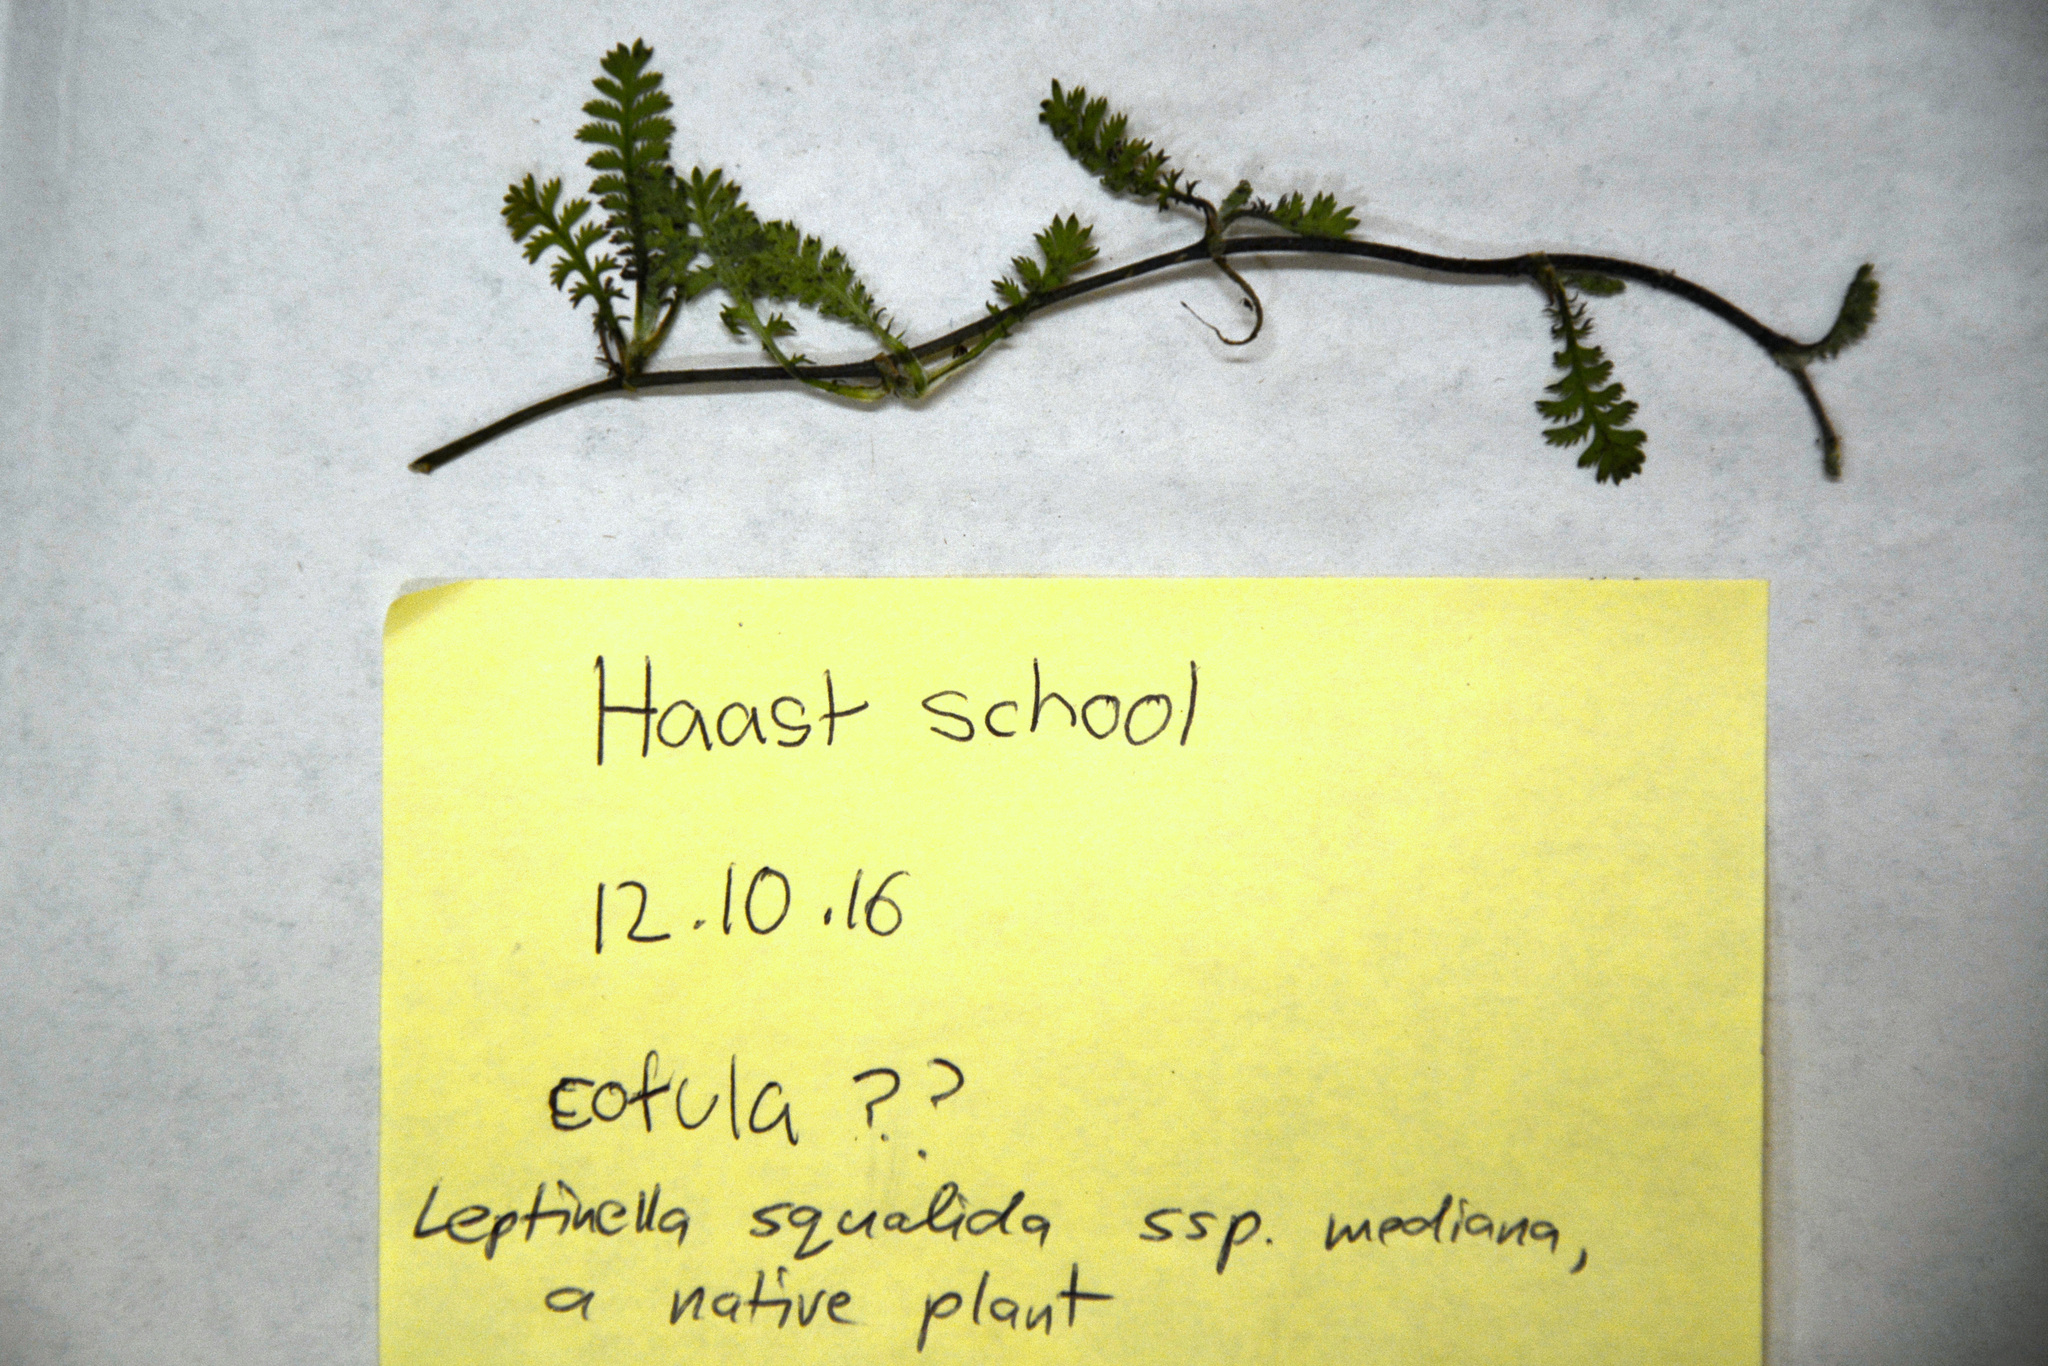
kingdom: Plantae
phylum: Tracheophyta
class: Magnoliopsida
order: Asterales
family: Asteraceae
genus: Leptinella
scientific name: Leptinella squalida
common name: New zealand brass-buttons
